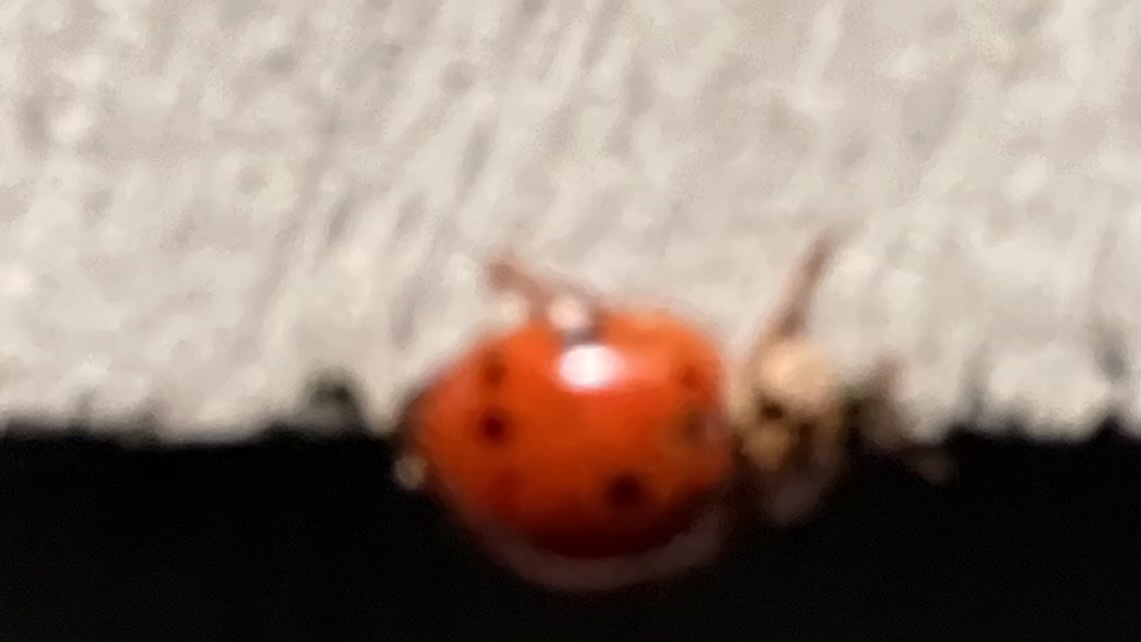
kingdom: Animalia
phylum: Arthropoda
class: Insecta
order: Coleoptera
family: Coccinellidae
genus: Harmonia
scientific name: Harmonia axyridis
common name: Harlequin ladybird
